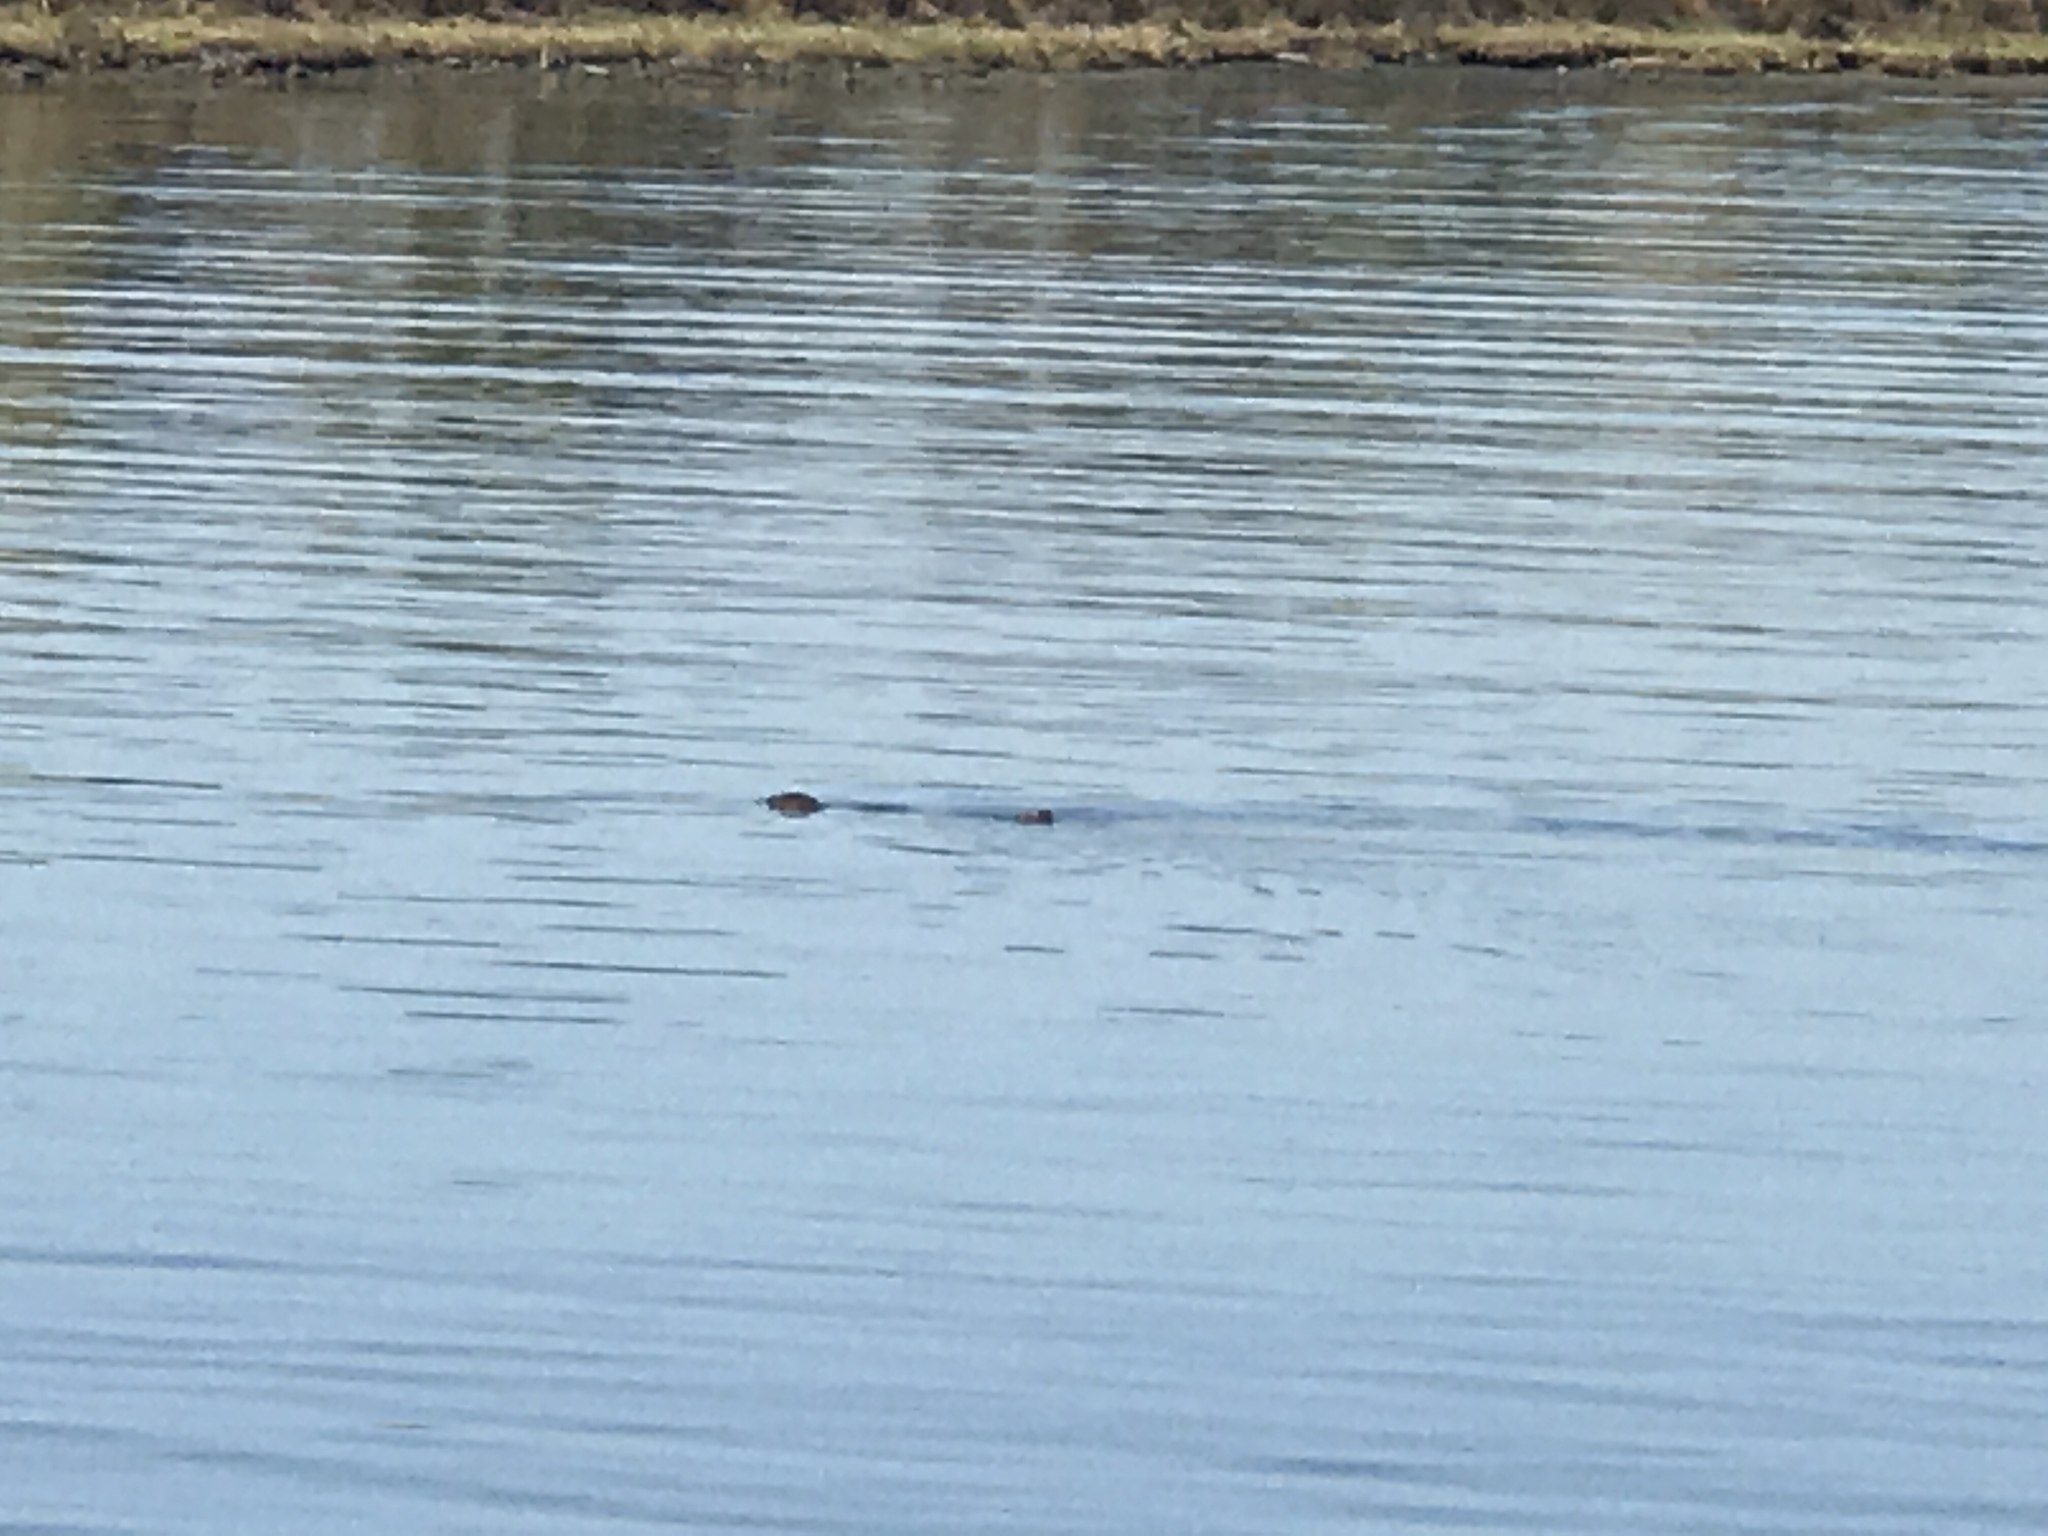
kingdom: Animalia
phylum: Chordata
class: Mammalia
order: Carnivora
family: Mustelidae
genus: Lontra
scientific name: Lontra canadensis
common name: North american river otter
